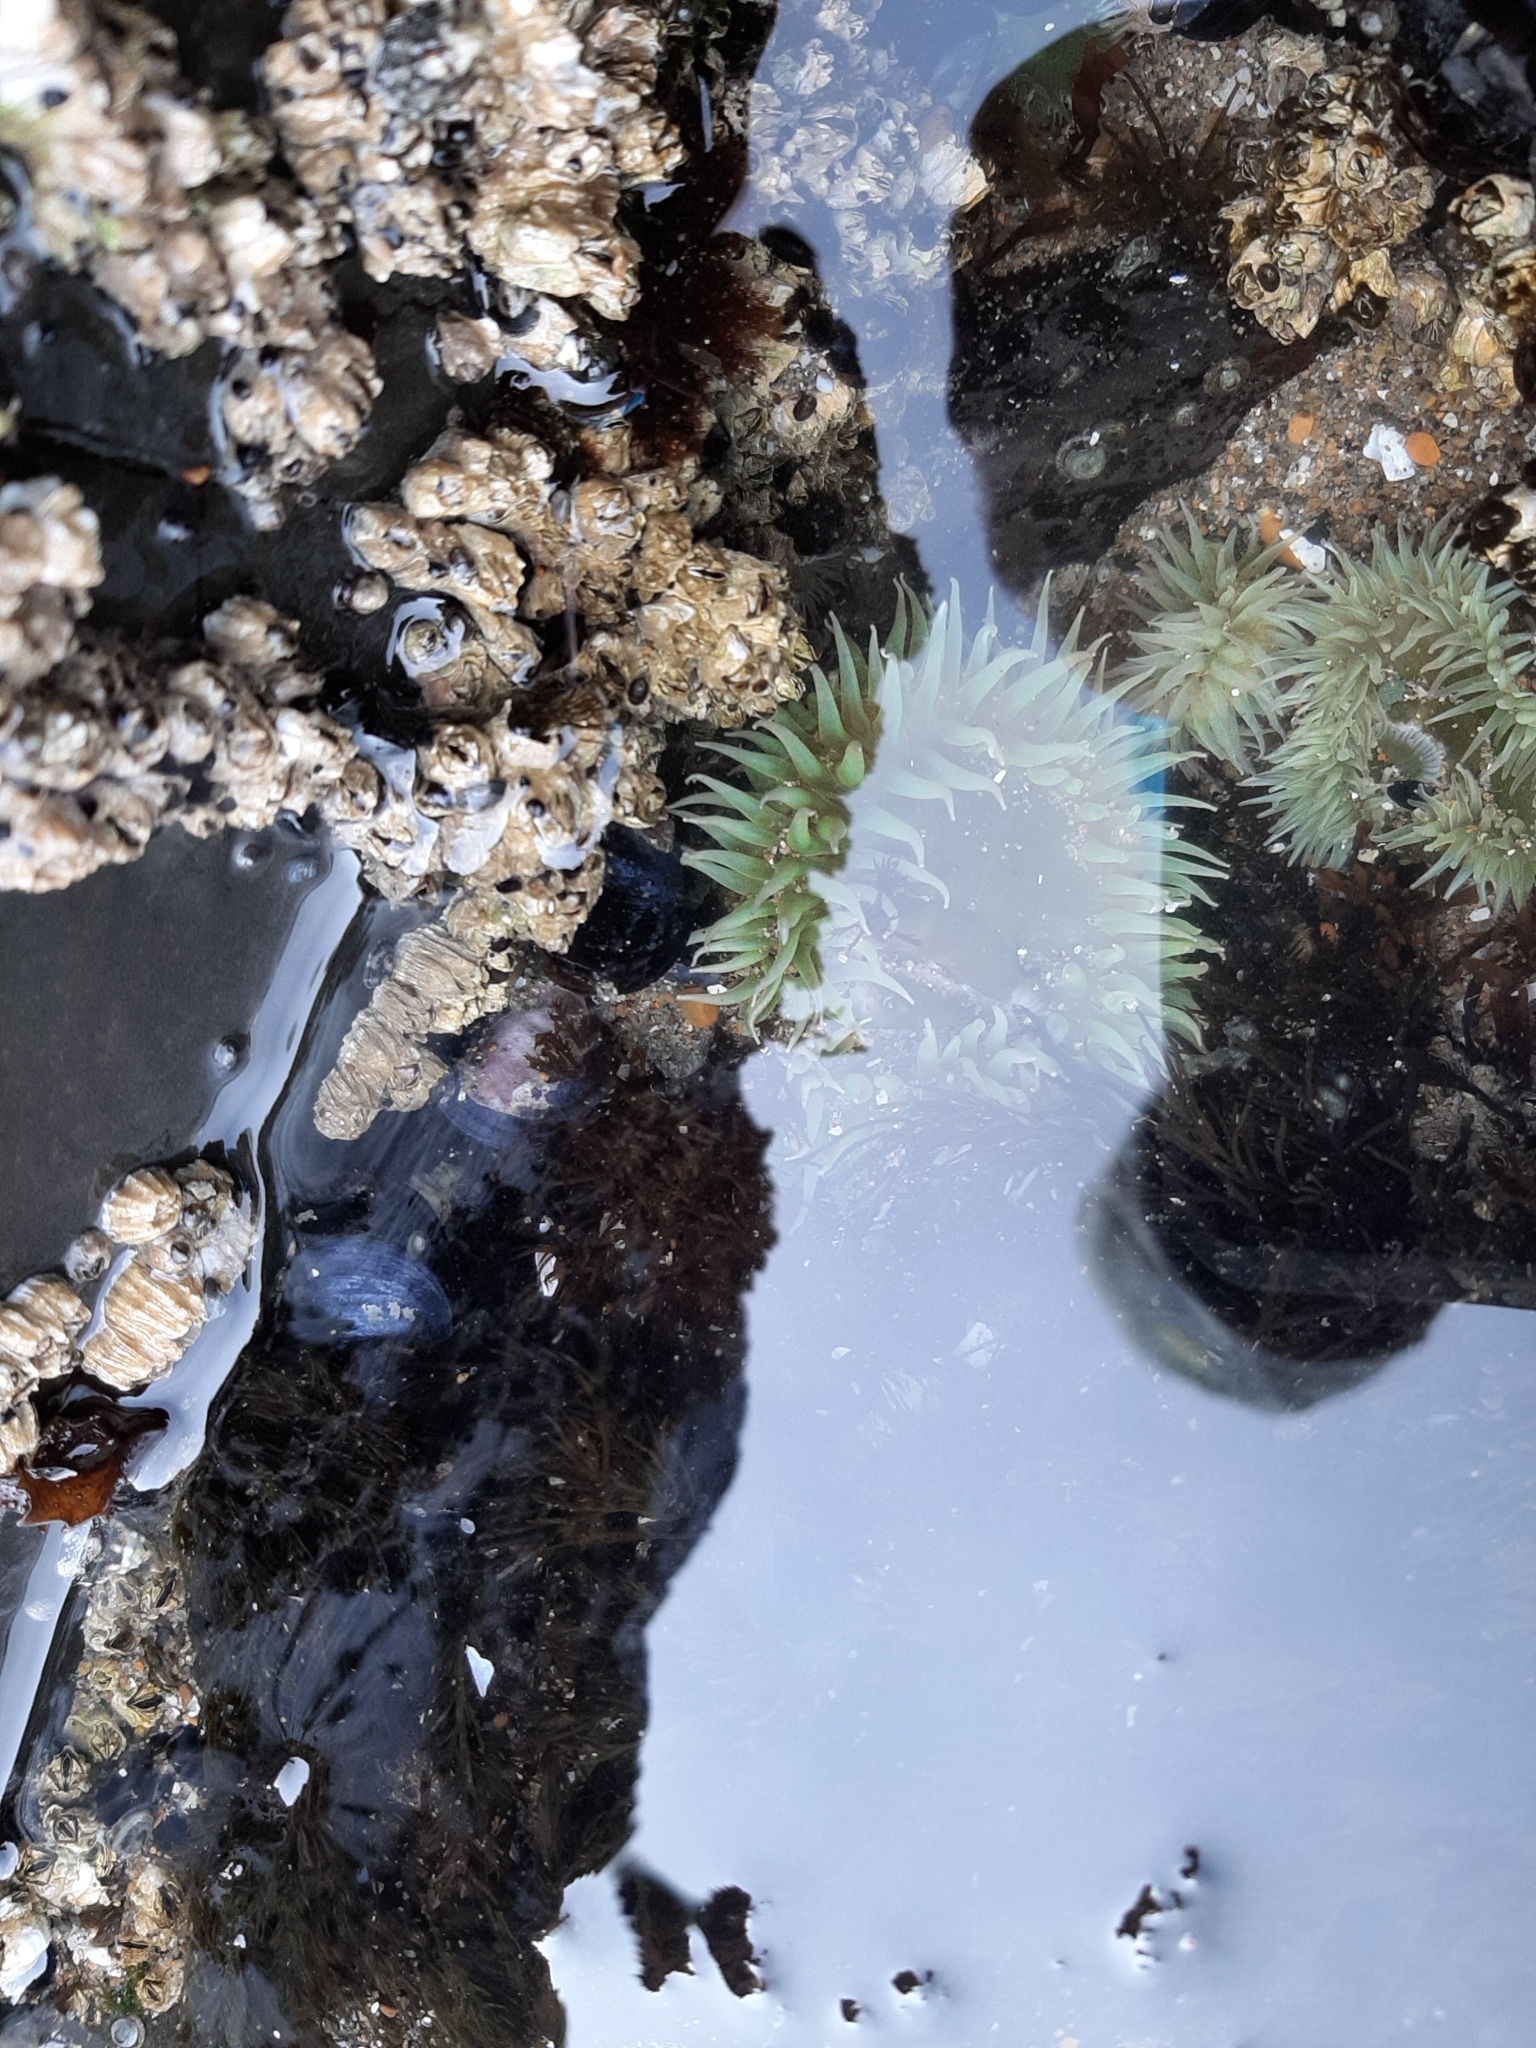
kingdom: Animalia
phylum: Cnidaria
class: Anthozoa
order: Actiniaria
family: Actiniidae
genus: Anthopleura
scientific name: Anthopleura xanthogrammica
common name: Giant green anemone
